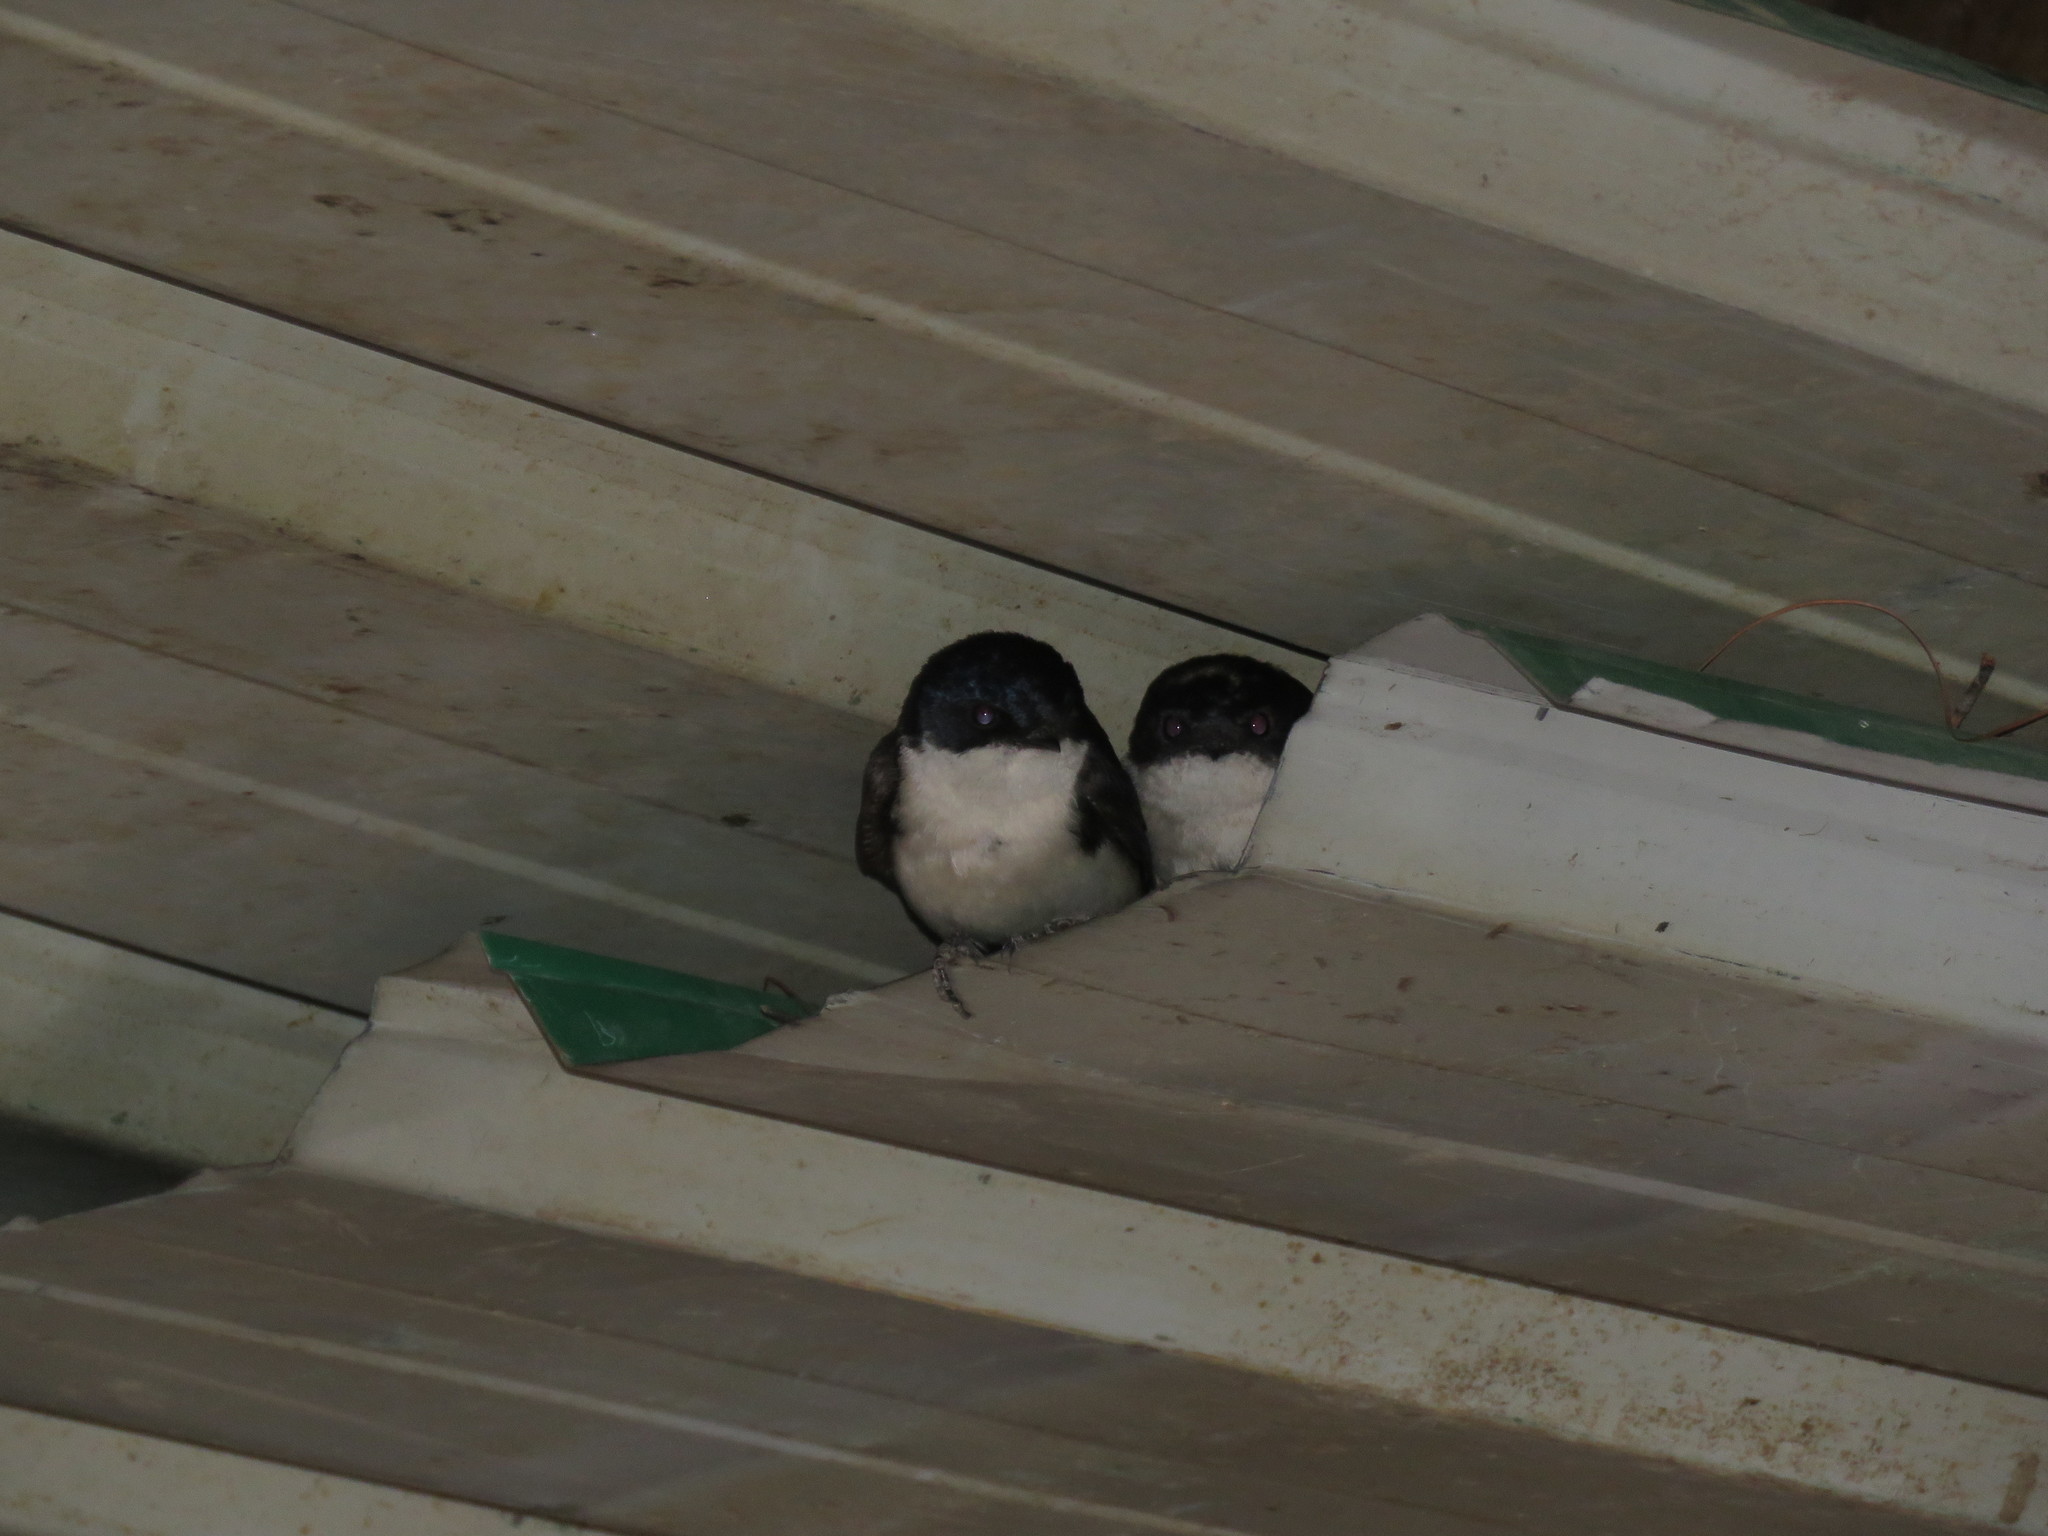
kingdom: Animalia
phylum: Chordata
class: Aves
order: Passeriformes
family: Hirundinidae
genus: Notiochelidon
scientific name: Notiochelidon cyanoleuca
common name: Blue-and-white swallow
